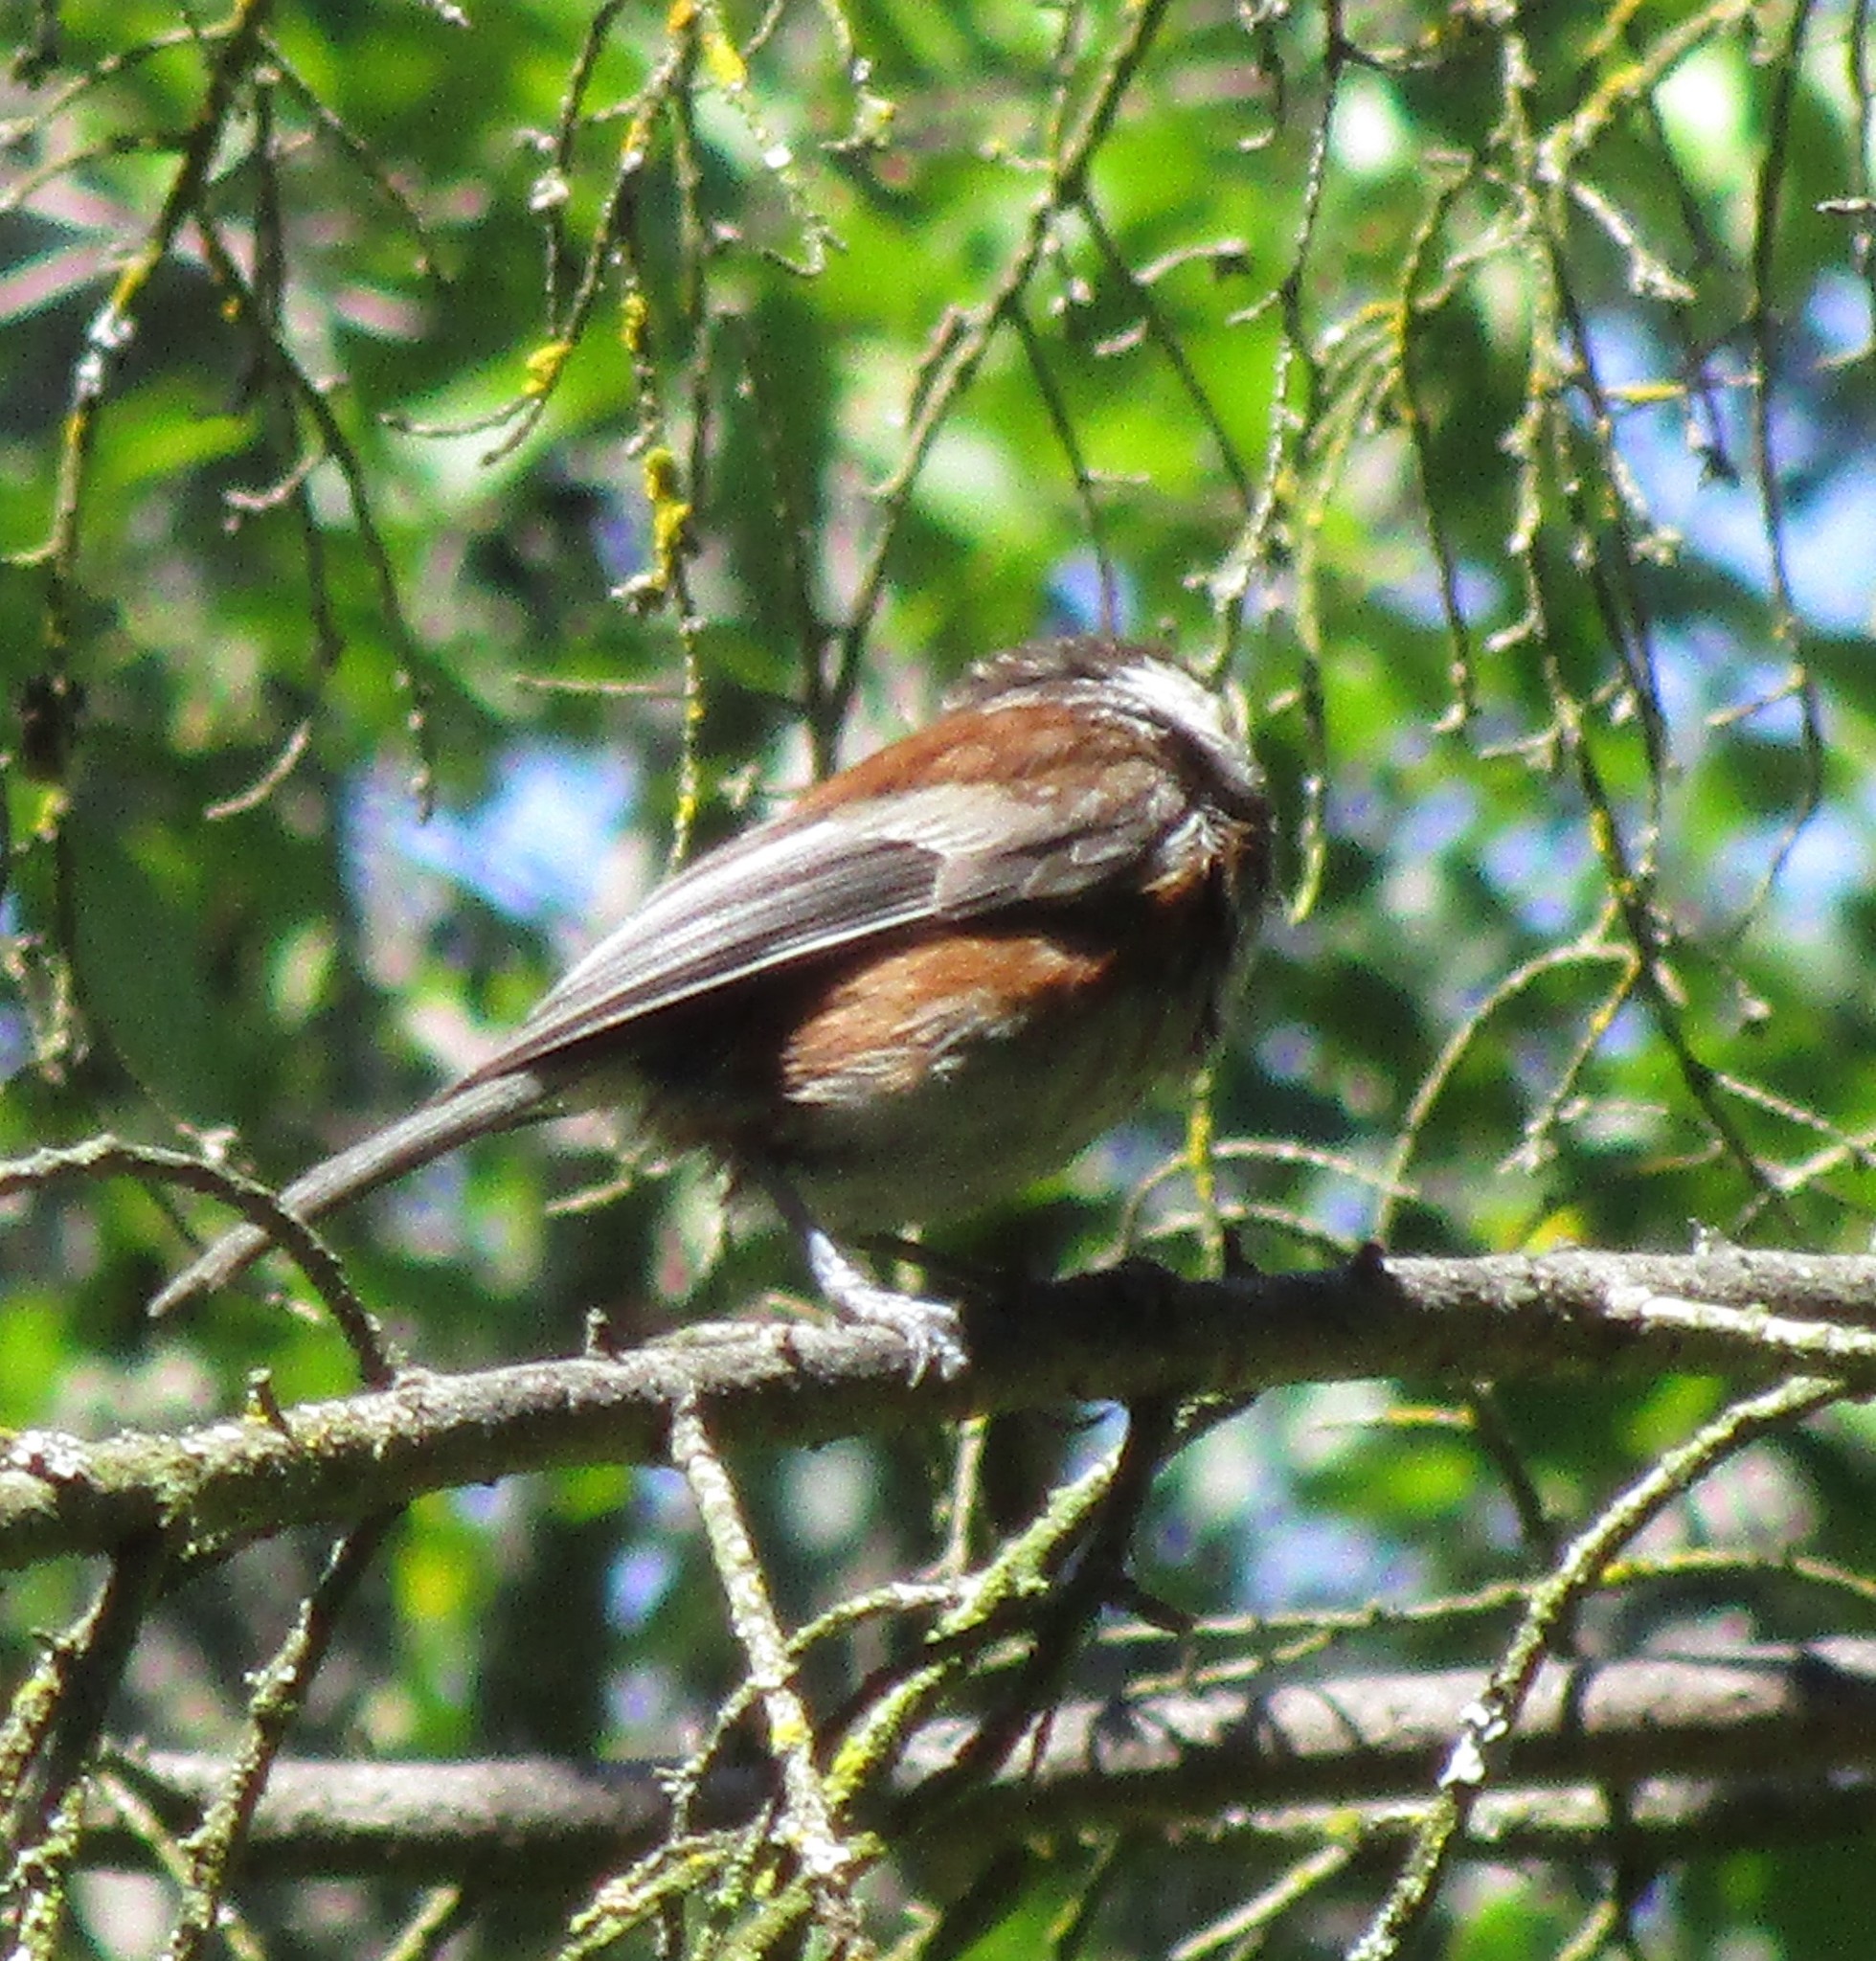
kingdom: Animalia
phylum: Chordata
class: Aves
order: Passeriformes
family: Paridae
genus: Poecile
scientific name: Poecile rufescens
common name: Chestnut-backed chickadee
